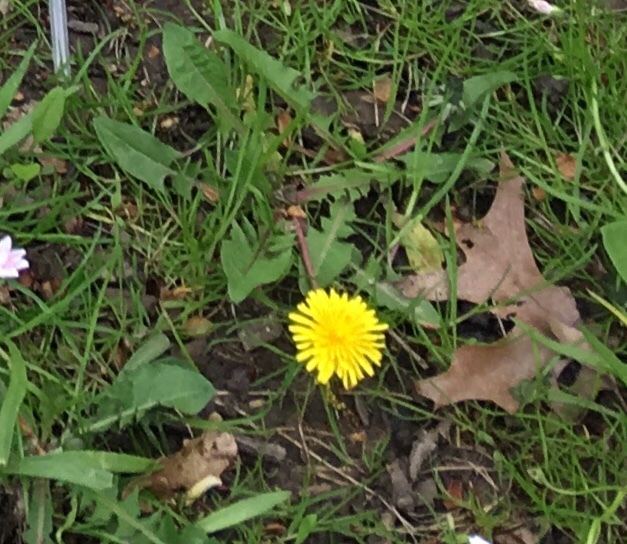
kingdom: Plantae
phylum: Tracheophyta
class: Magnoliopsida
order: Asterales
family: Asteraceae
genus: Taraxacum
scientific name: Taraxacum officinale
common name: Common dandelion
